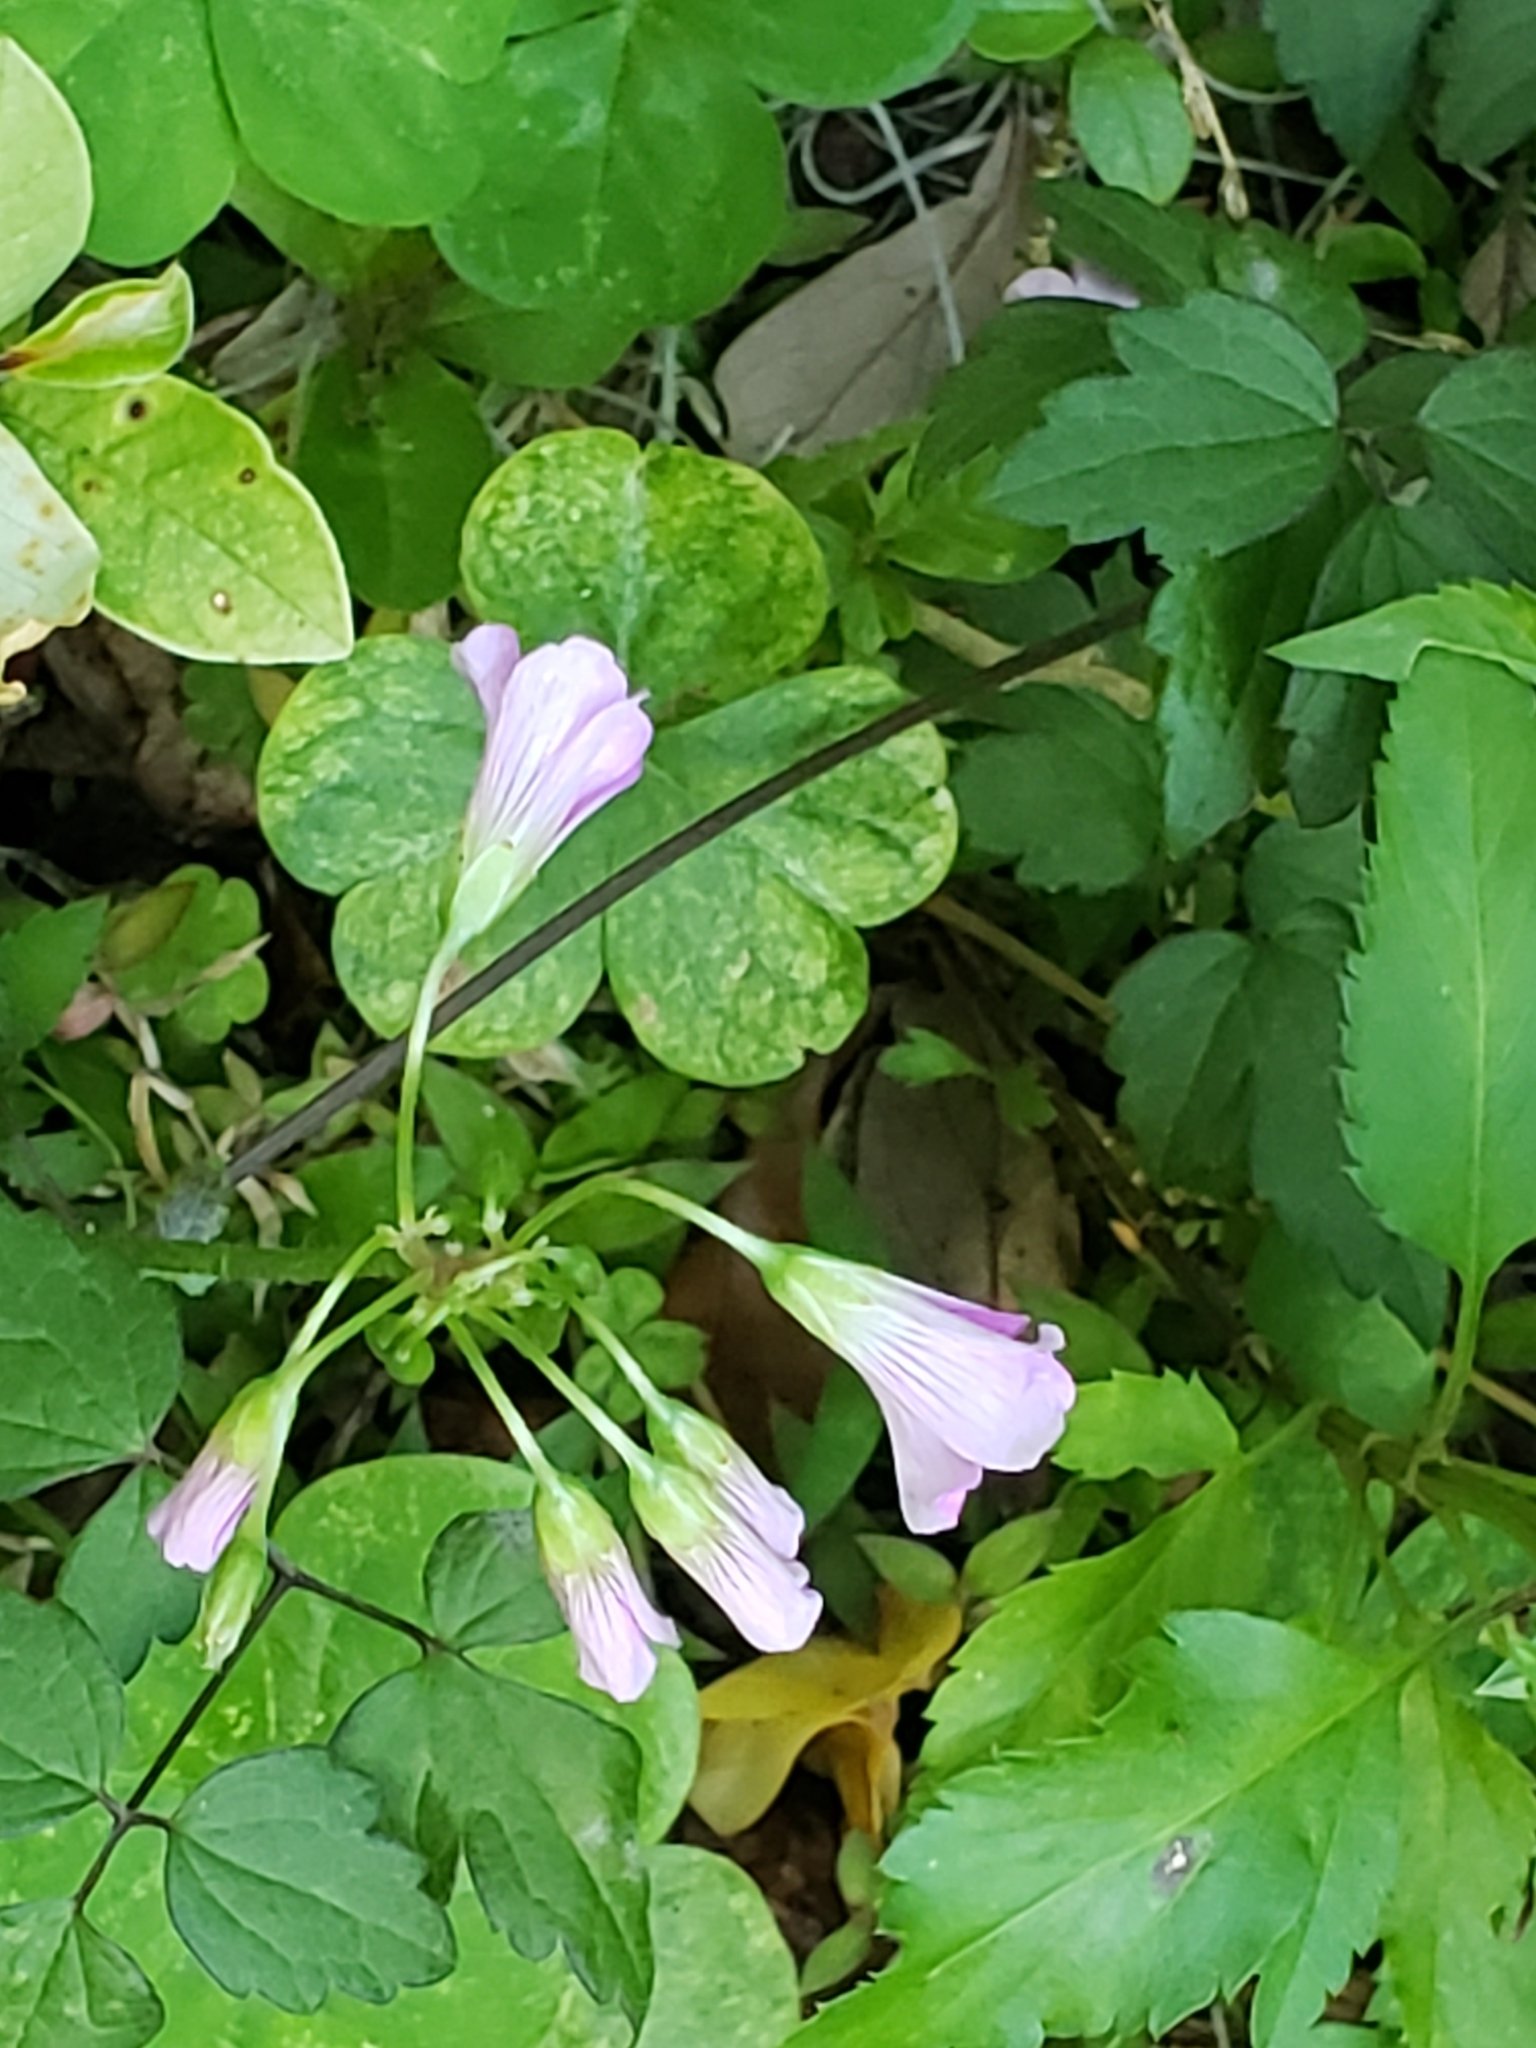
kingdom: Plantae
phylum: Tracheophyta
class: Magnoliopsida
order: Oxalidales
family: Oxalidaceae
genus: Oxalis
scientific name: Oxalis debilis
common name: Large-flowered pink-sorrel
